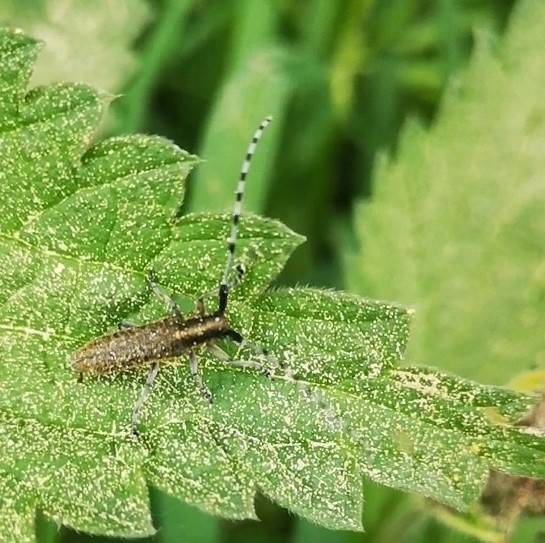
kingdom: Animalia
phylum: Arthropoda
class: Insecta
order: Coleoptera
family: Cerambycidae
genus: Agapanthia
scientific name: Agapanthia villosoviridescens
